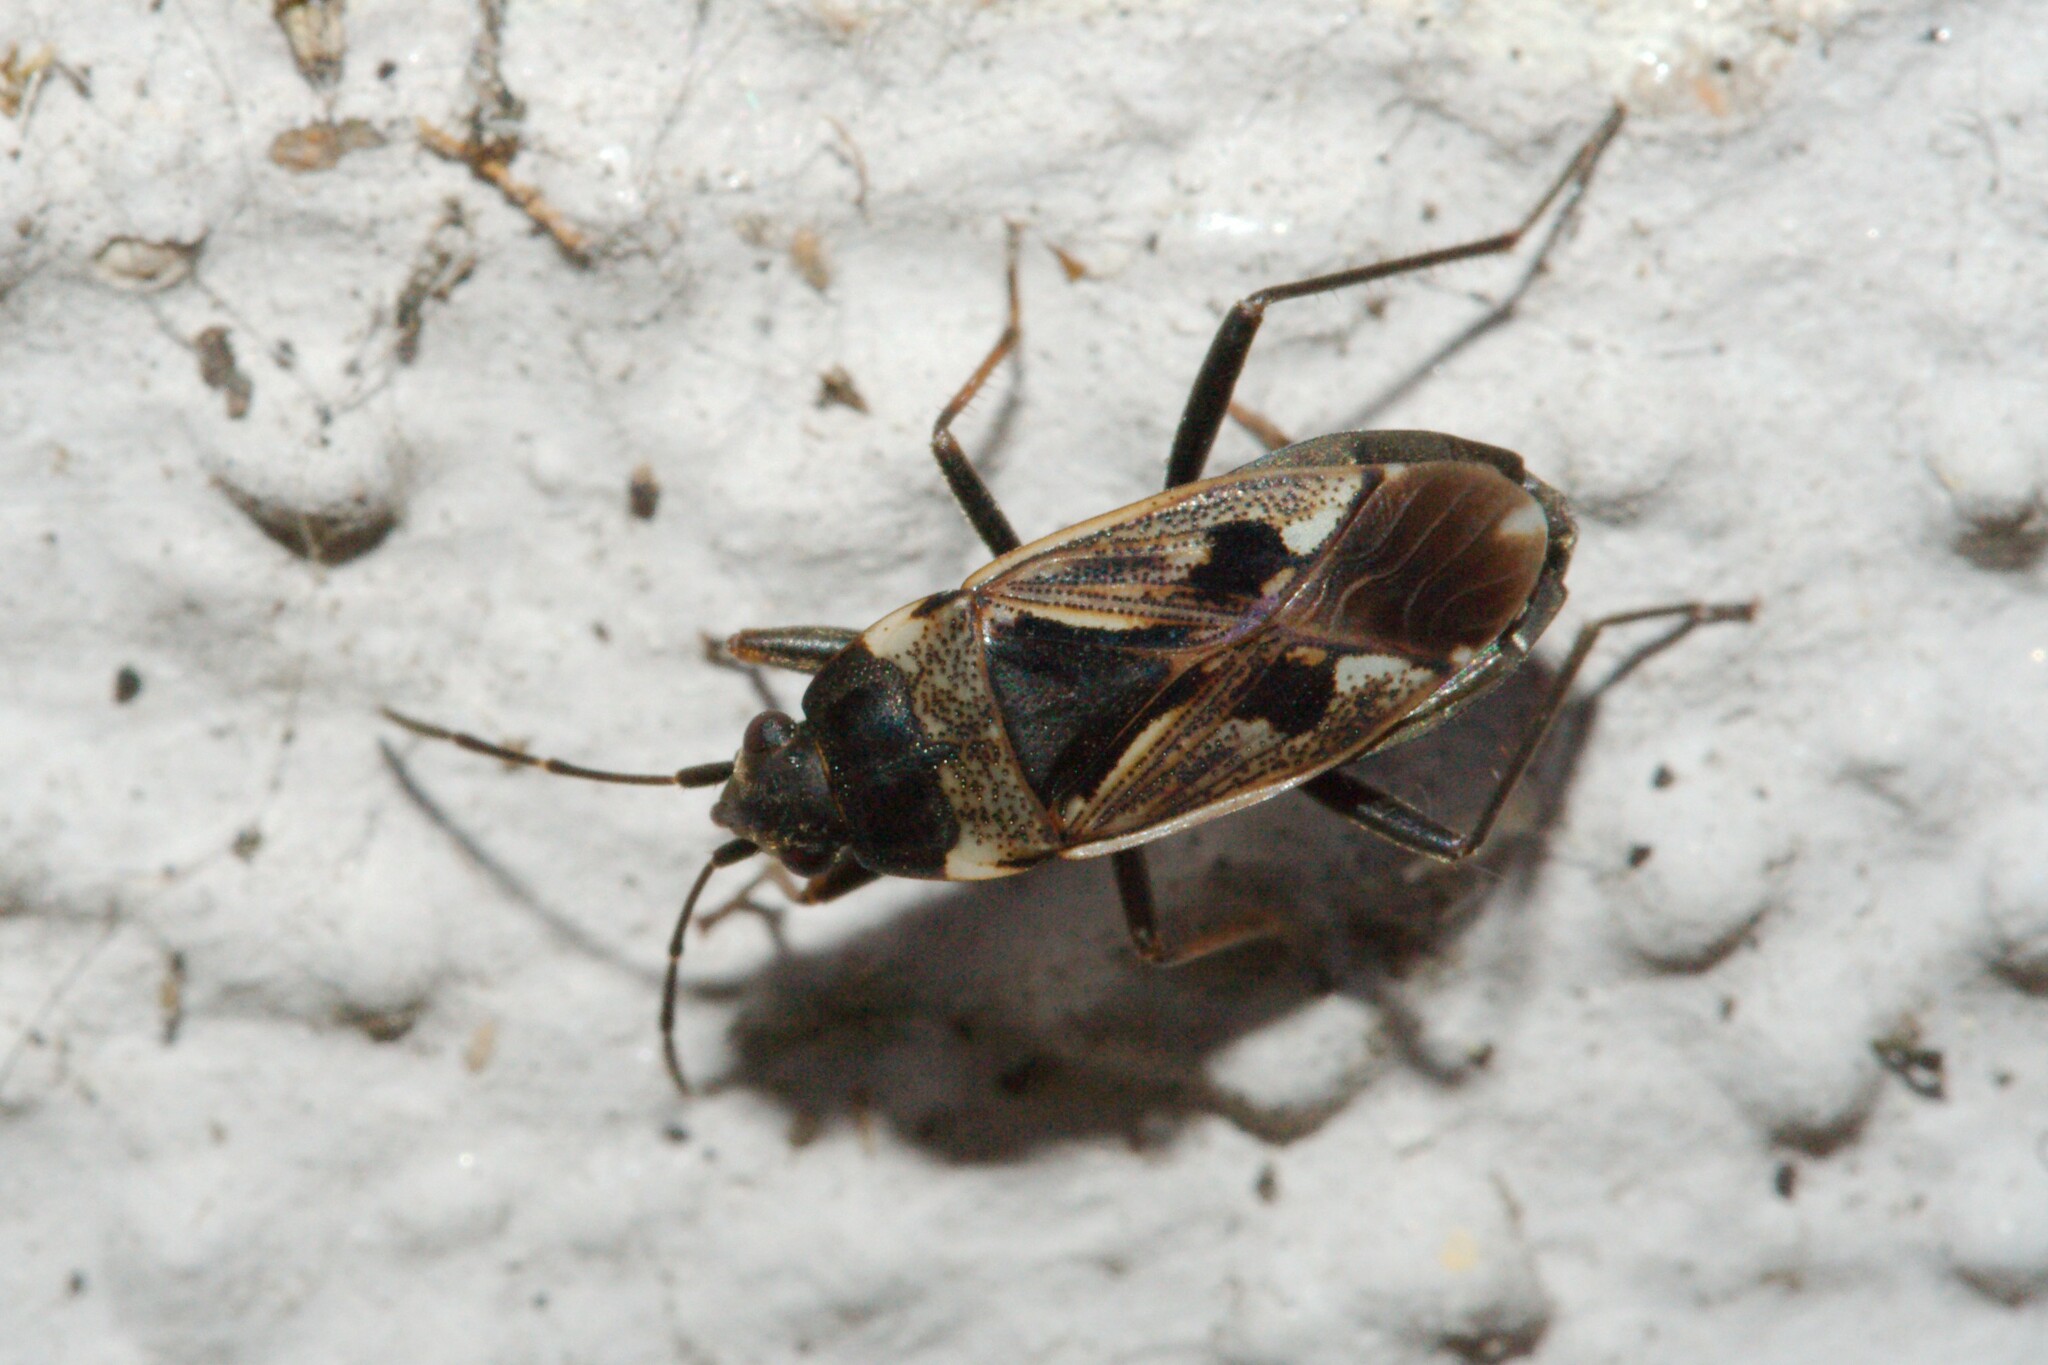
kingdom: Animalia
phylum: Arthropoda
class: Insecta
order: Hemiptera
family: Rhyparochromidae
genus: Rhyparochromus
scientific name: Rhyparochromus vulgaris
